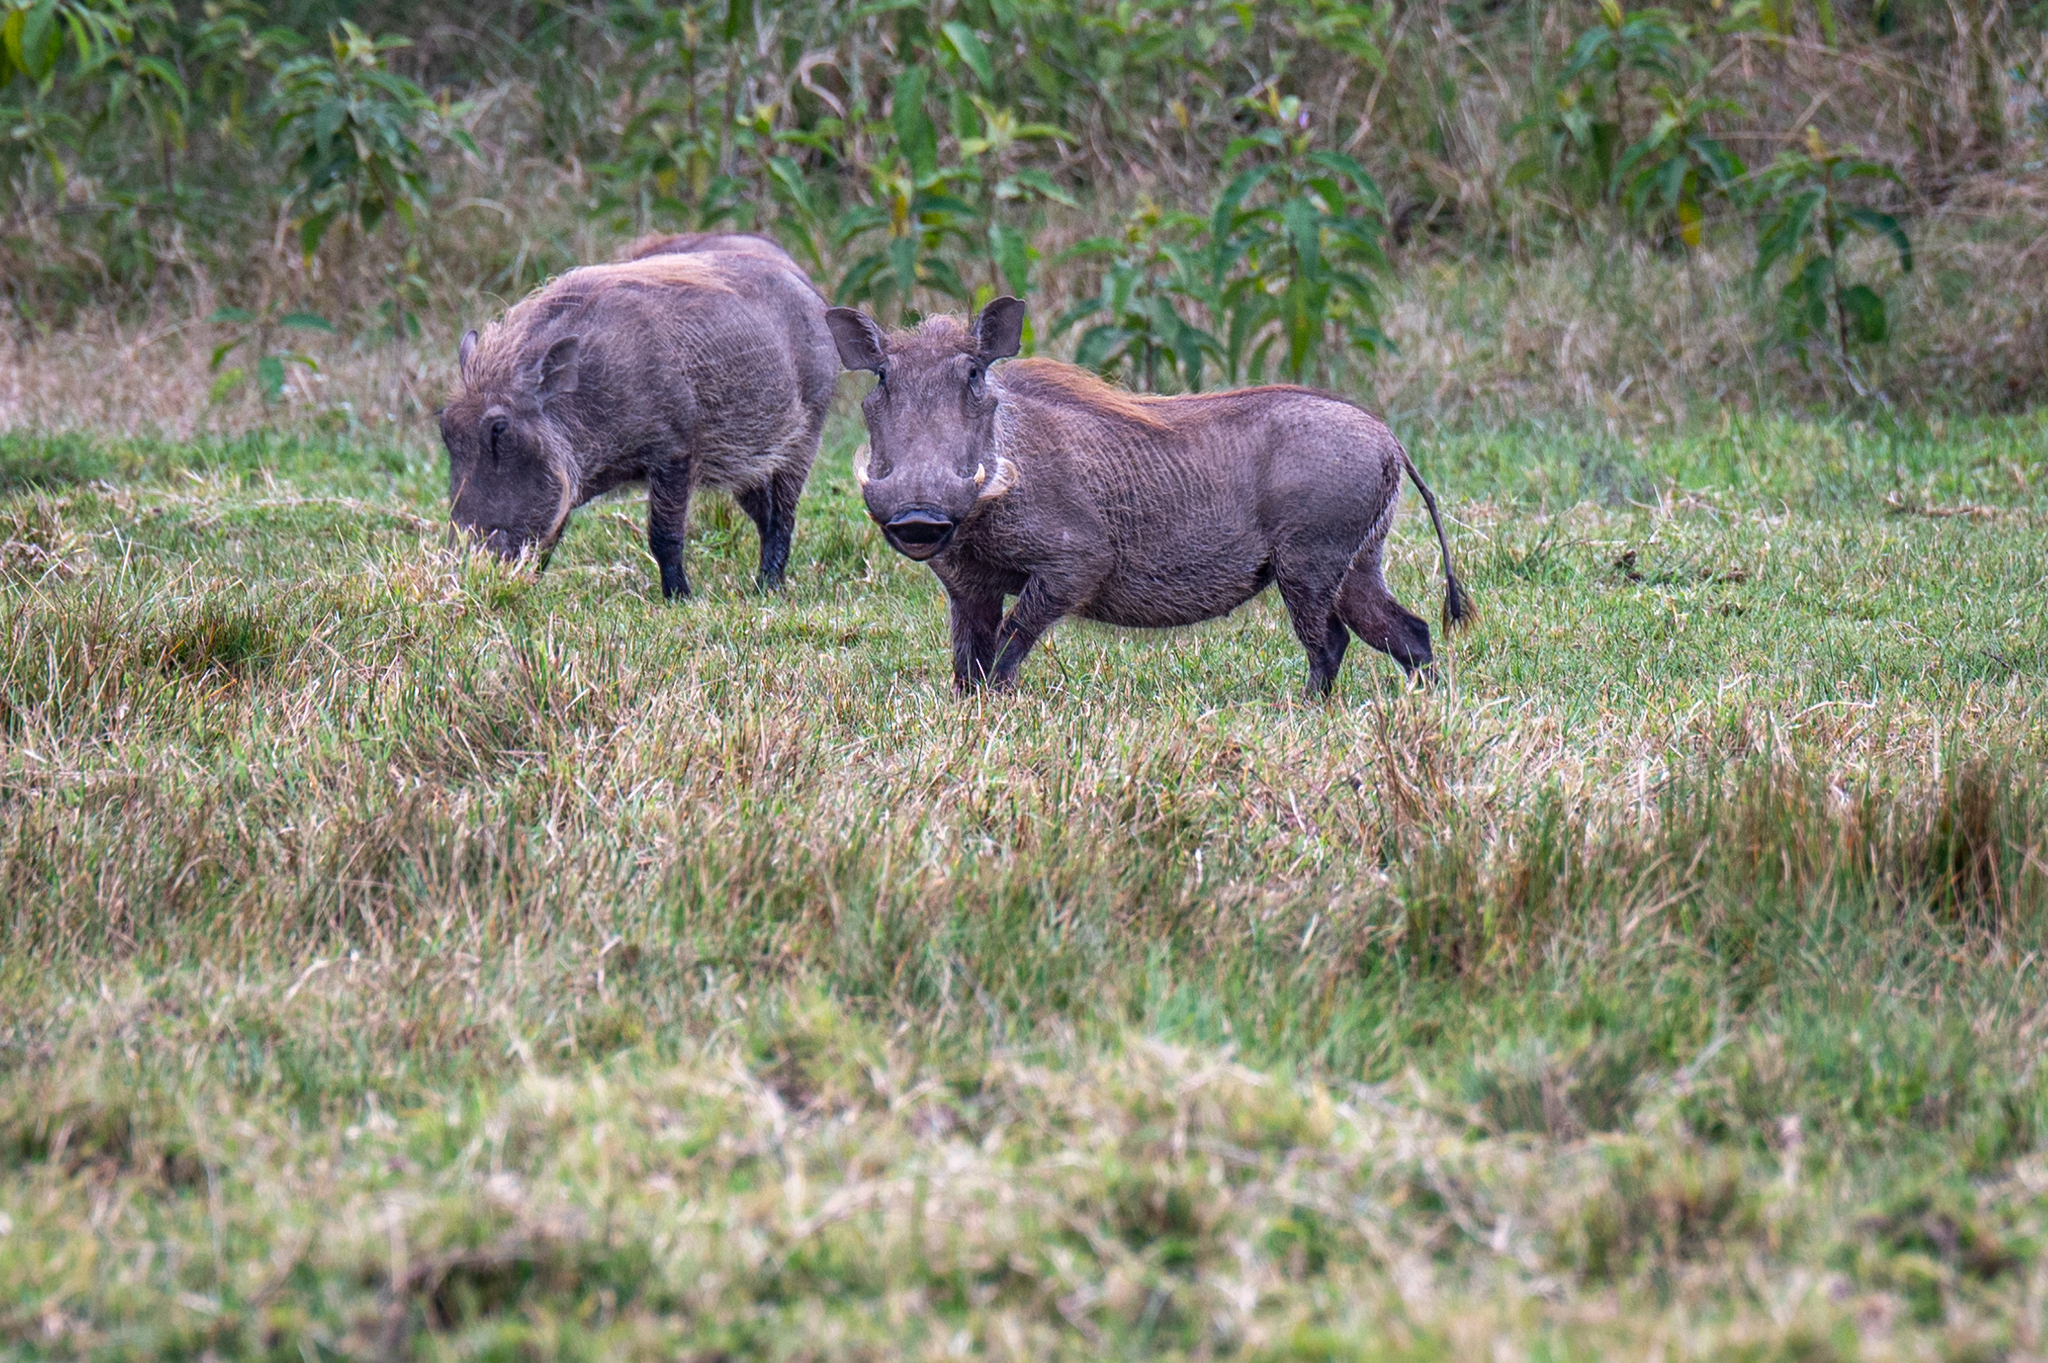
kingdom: Animalia
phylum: Chordata
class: Mammalia
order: Artiodactyla
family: Suidae
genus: Phacochoerus
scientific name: Phacochoerus africanus
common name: Common warthog
